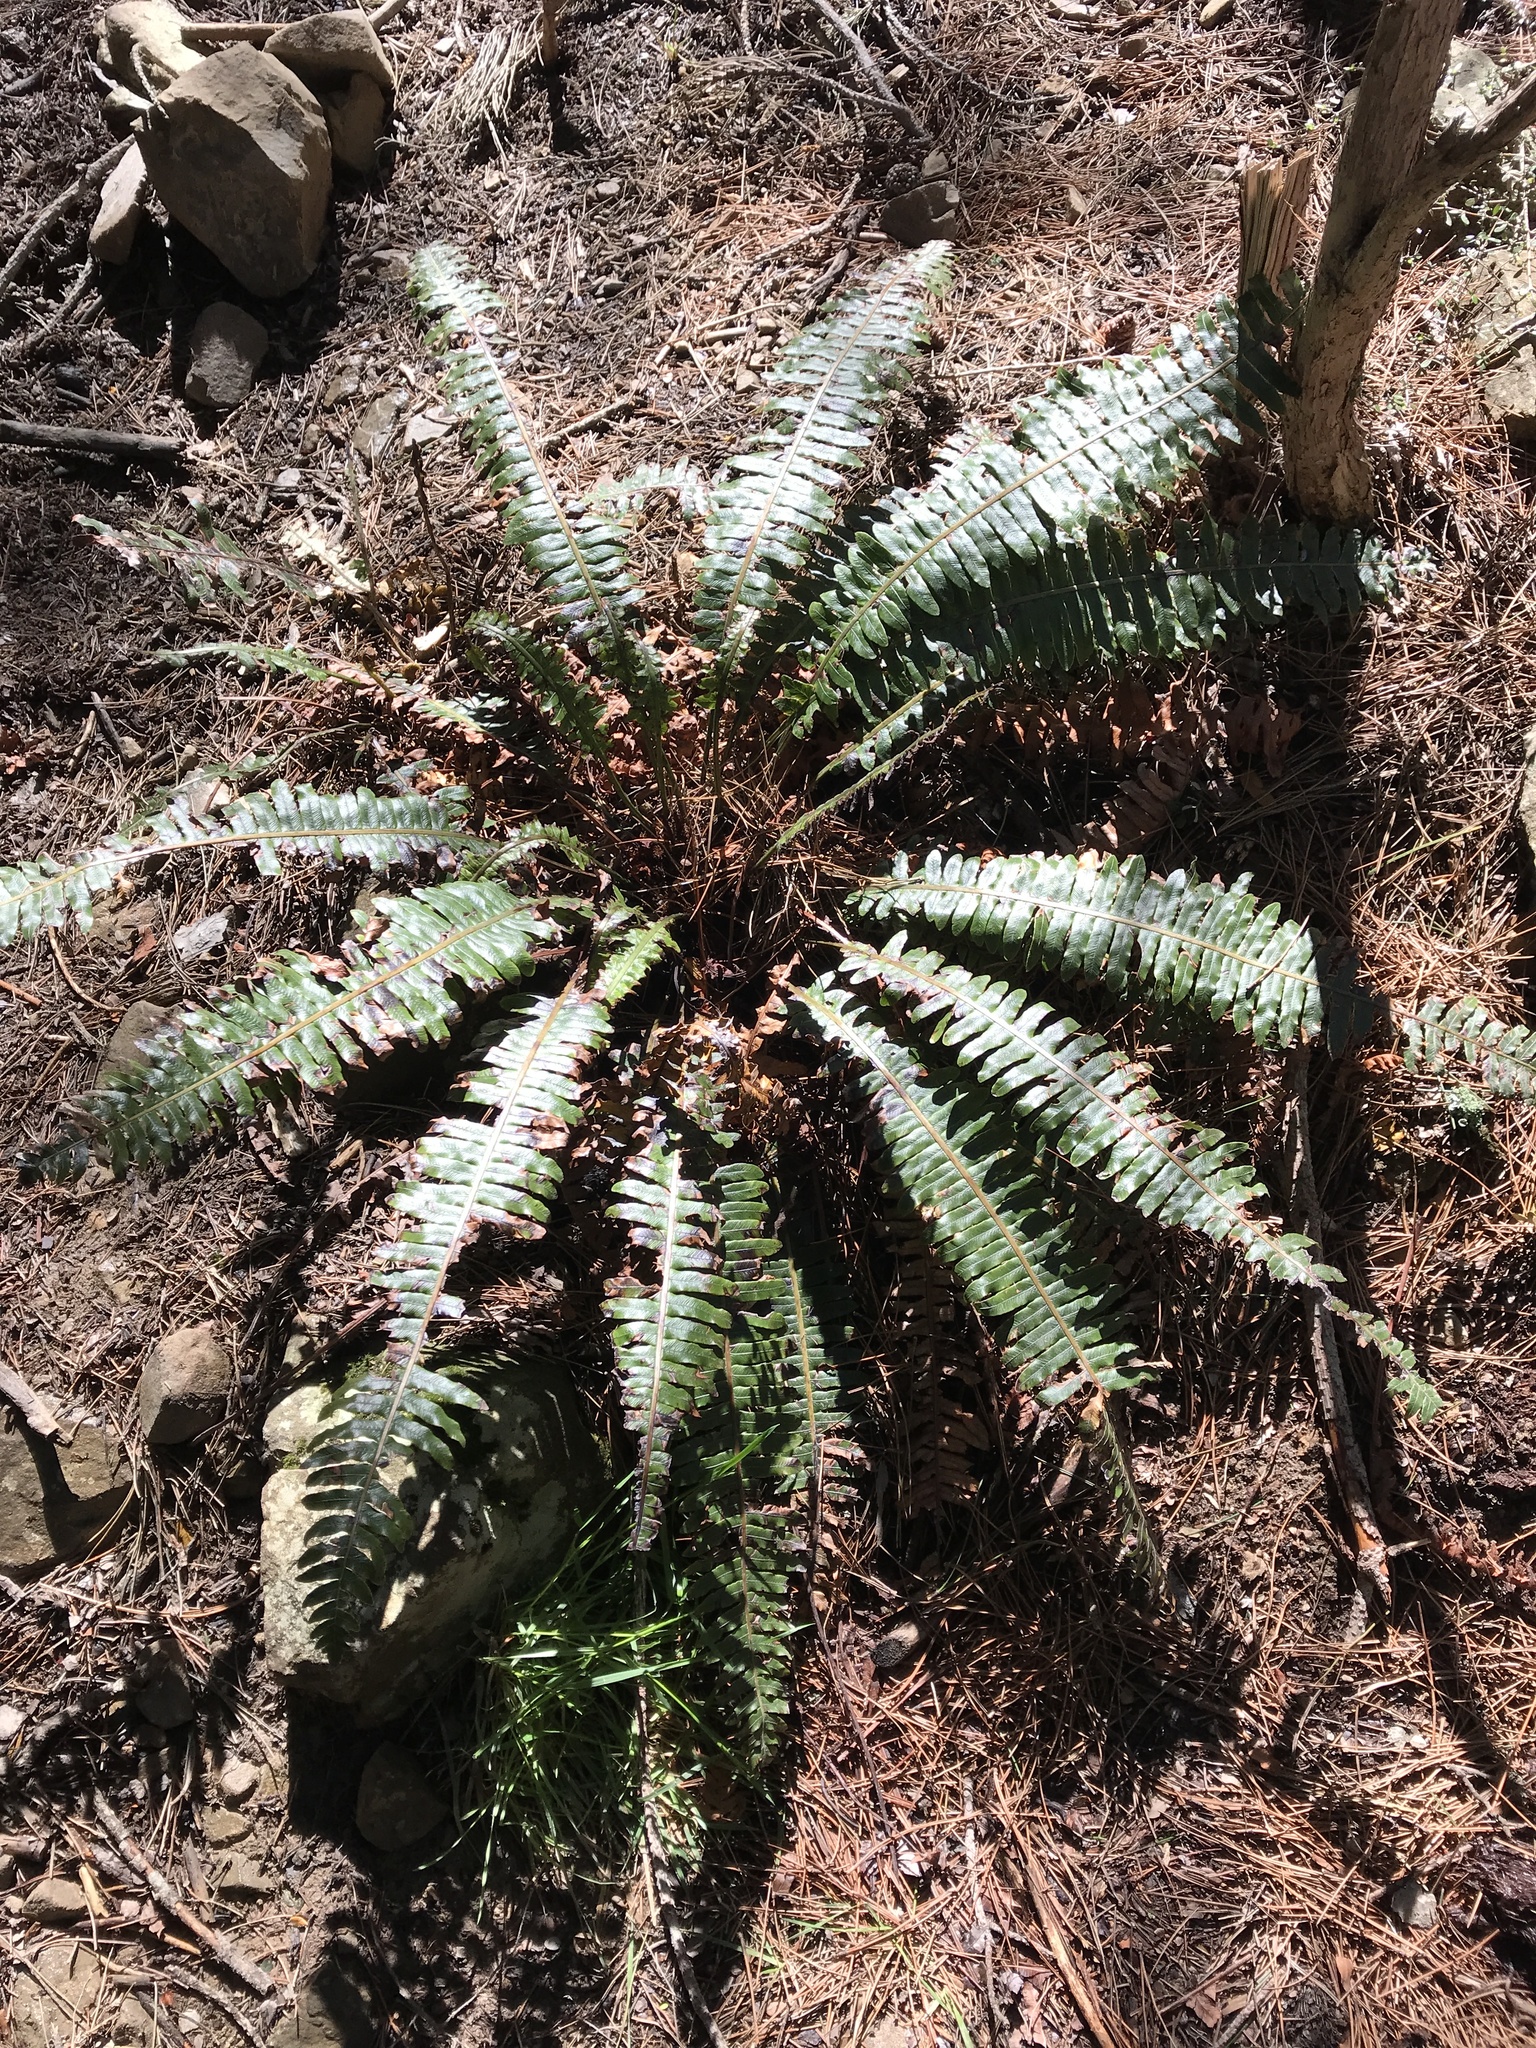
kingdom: Plantae
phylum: Tracheophyta
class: Polypodiopsida
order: Polypodiales
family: Blechnaceae
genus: Lomaria
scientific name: Lomaria discolor
